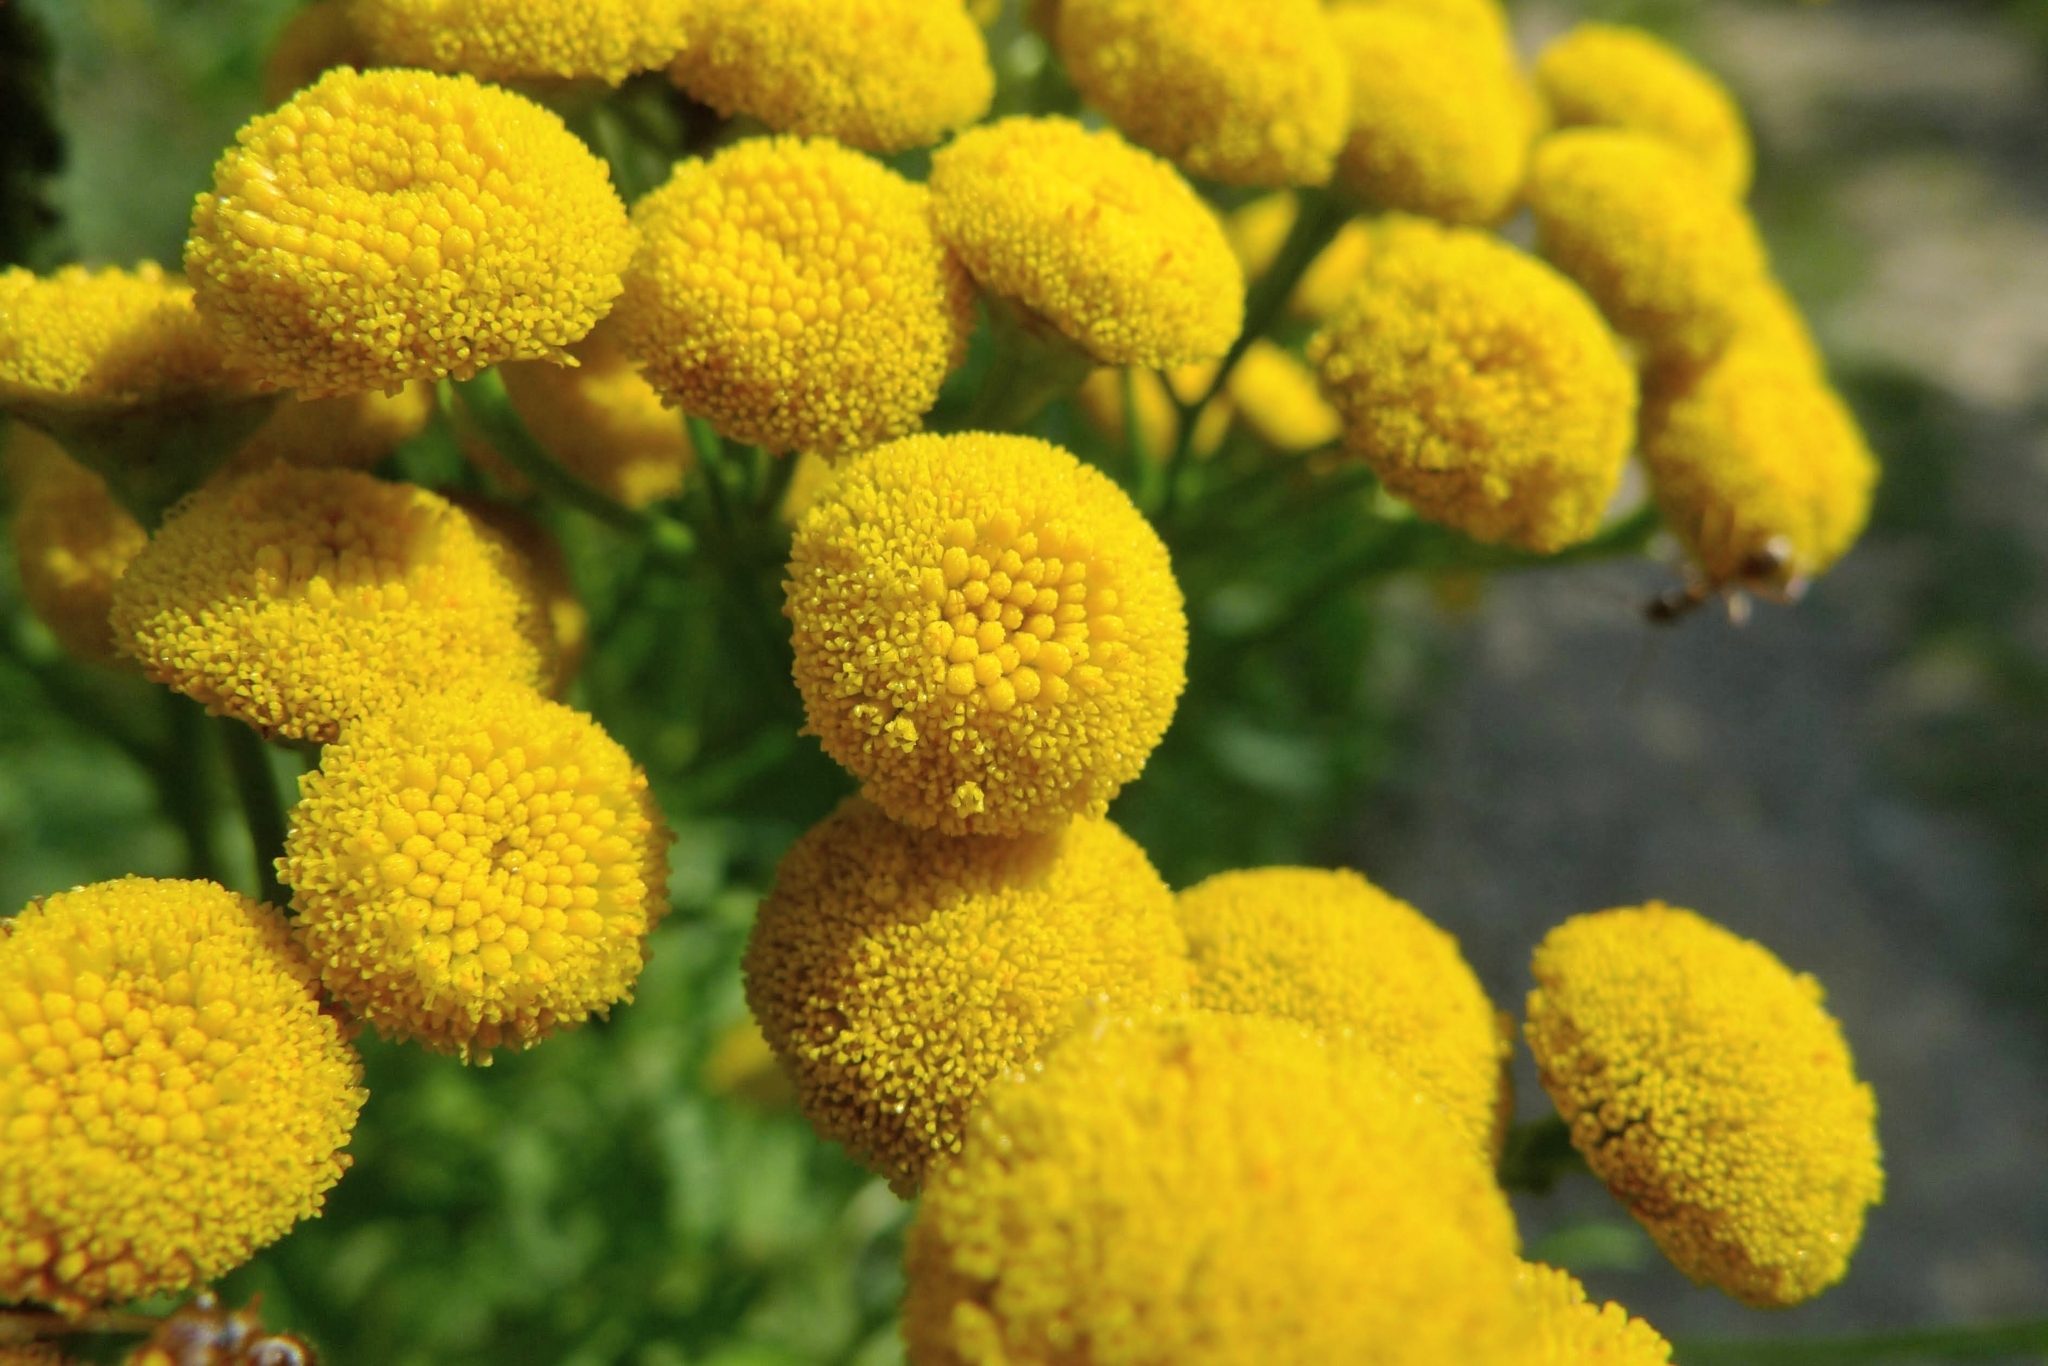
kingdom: Plantae
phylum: Tracheophyta
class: Magnoliopsida
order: Asterales
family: Asteraceae
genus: Tanacetum
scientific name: Tanacetum vulgare
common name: Common tansy
